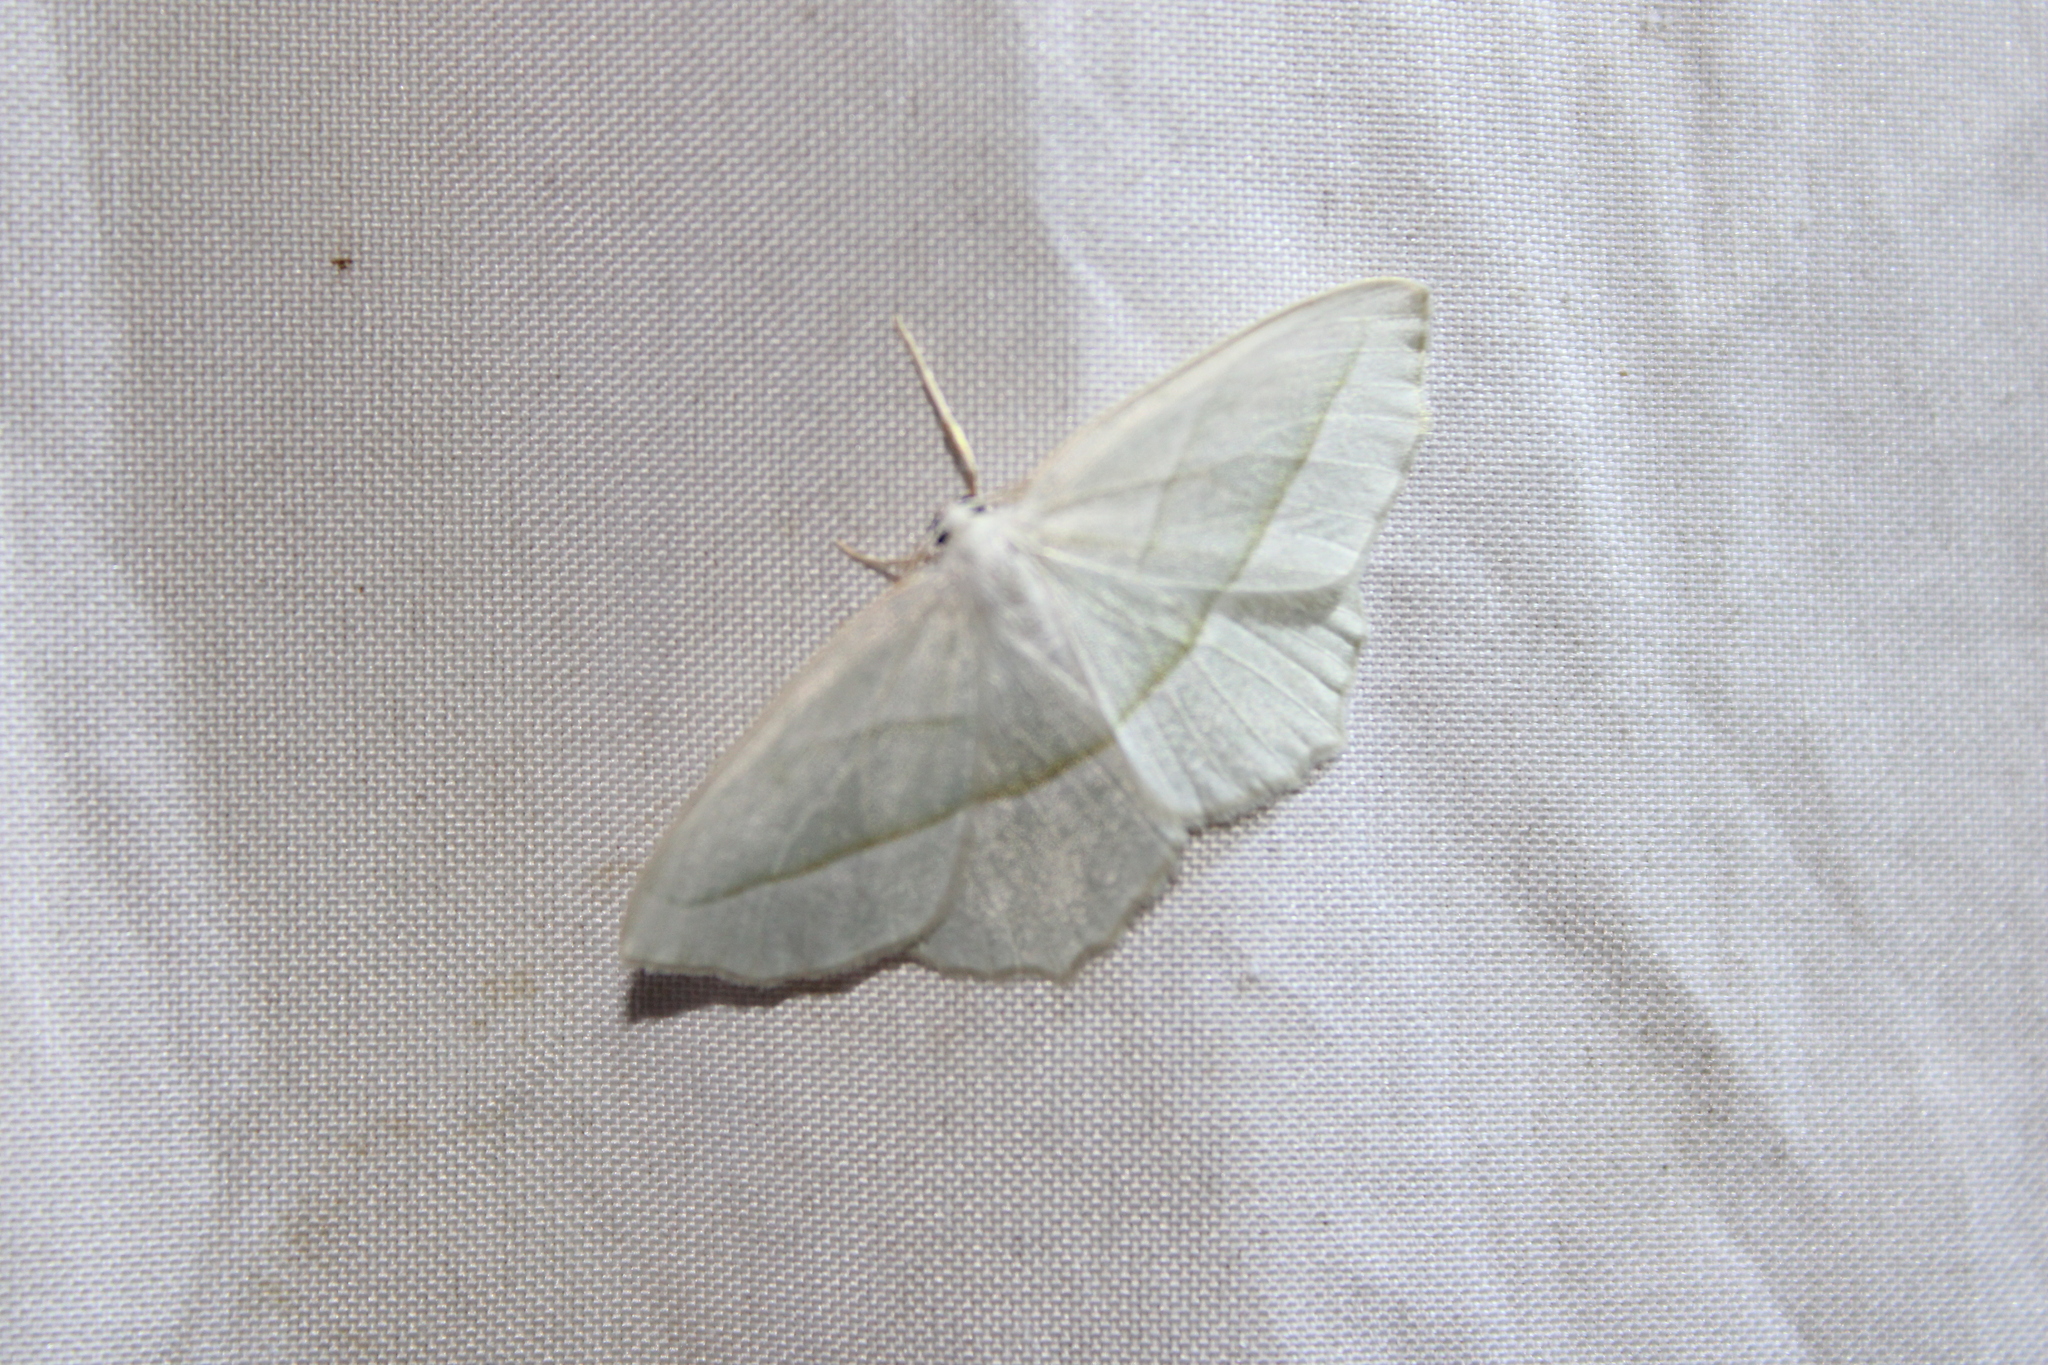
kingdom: Animalia
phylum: Arthropoda
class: Insecta
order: Lepidoptera
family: Geometridae
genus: Campaea
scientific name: Campaea perlata
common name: Fringed looper
